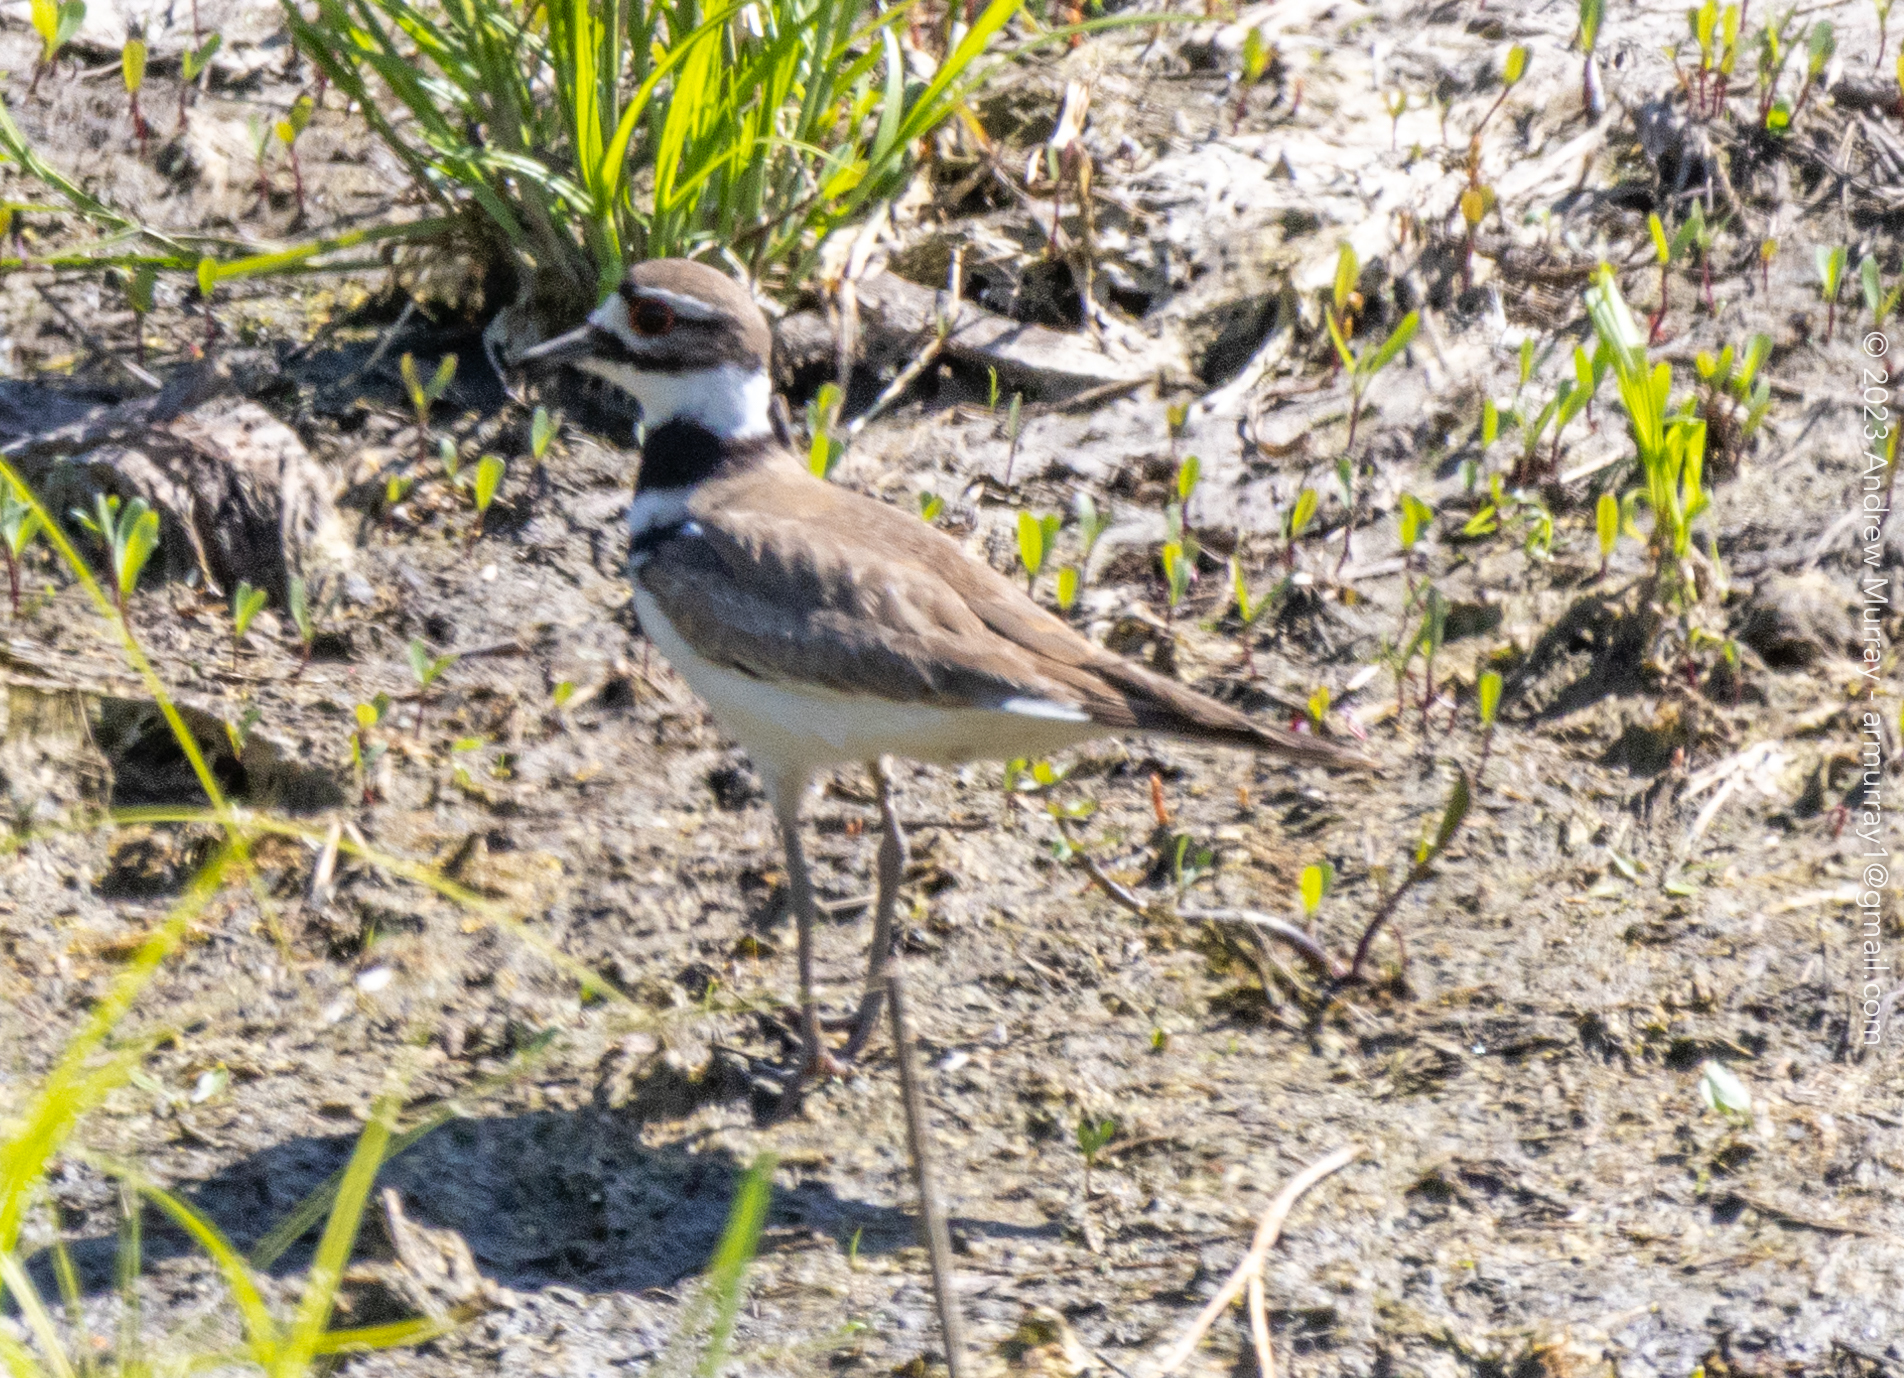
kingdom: Animalia
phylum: Chordata
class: Aves
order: Charadriiformes
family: Charadriidae
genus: Charadrius
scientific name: Charadrius vociferus
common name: Killdeer
